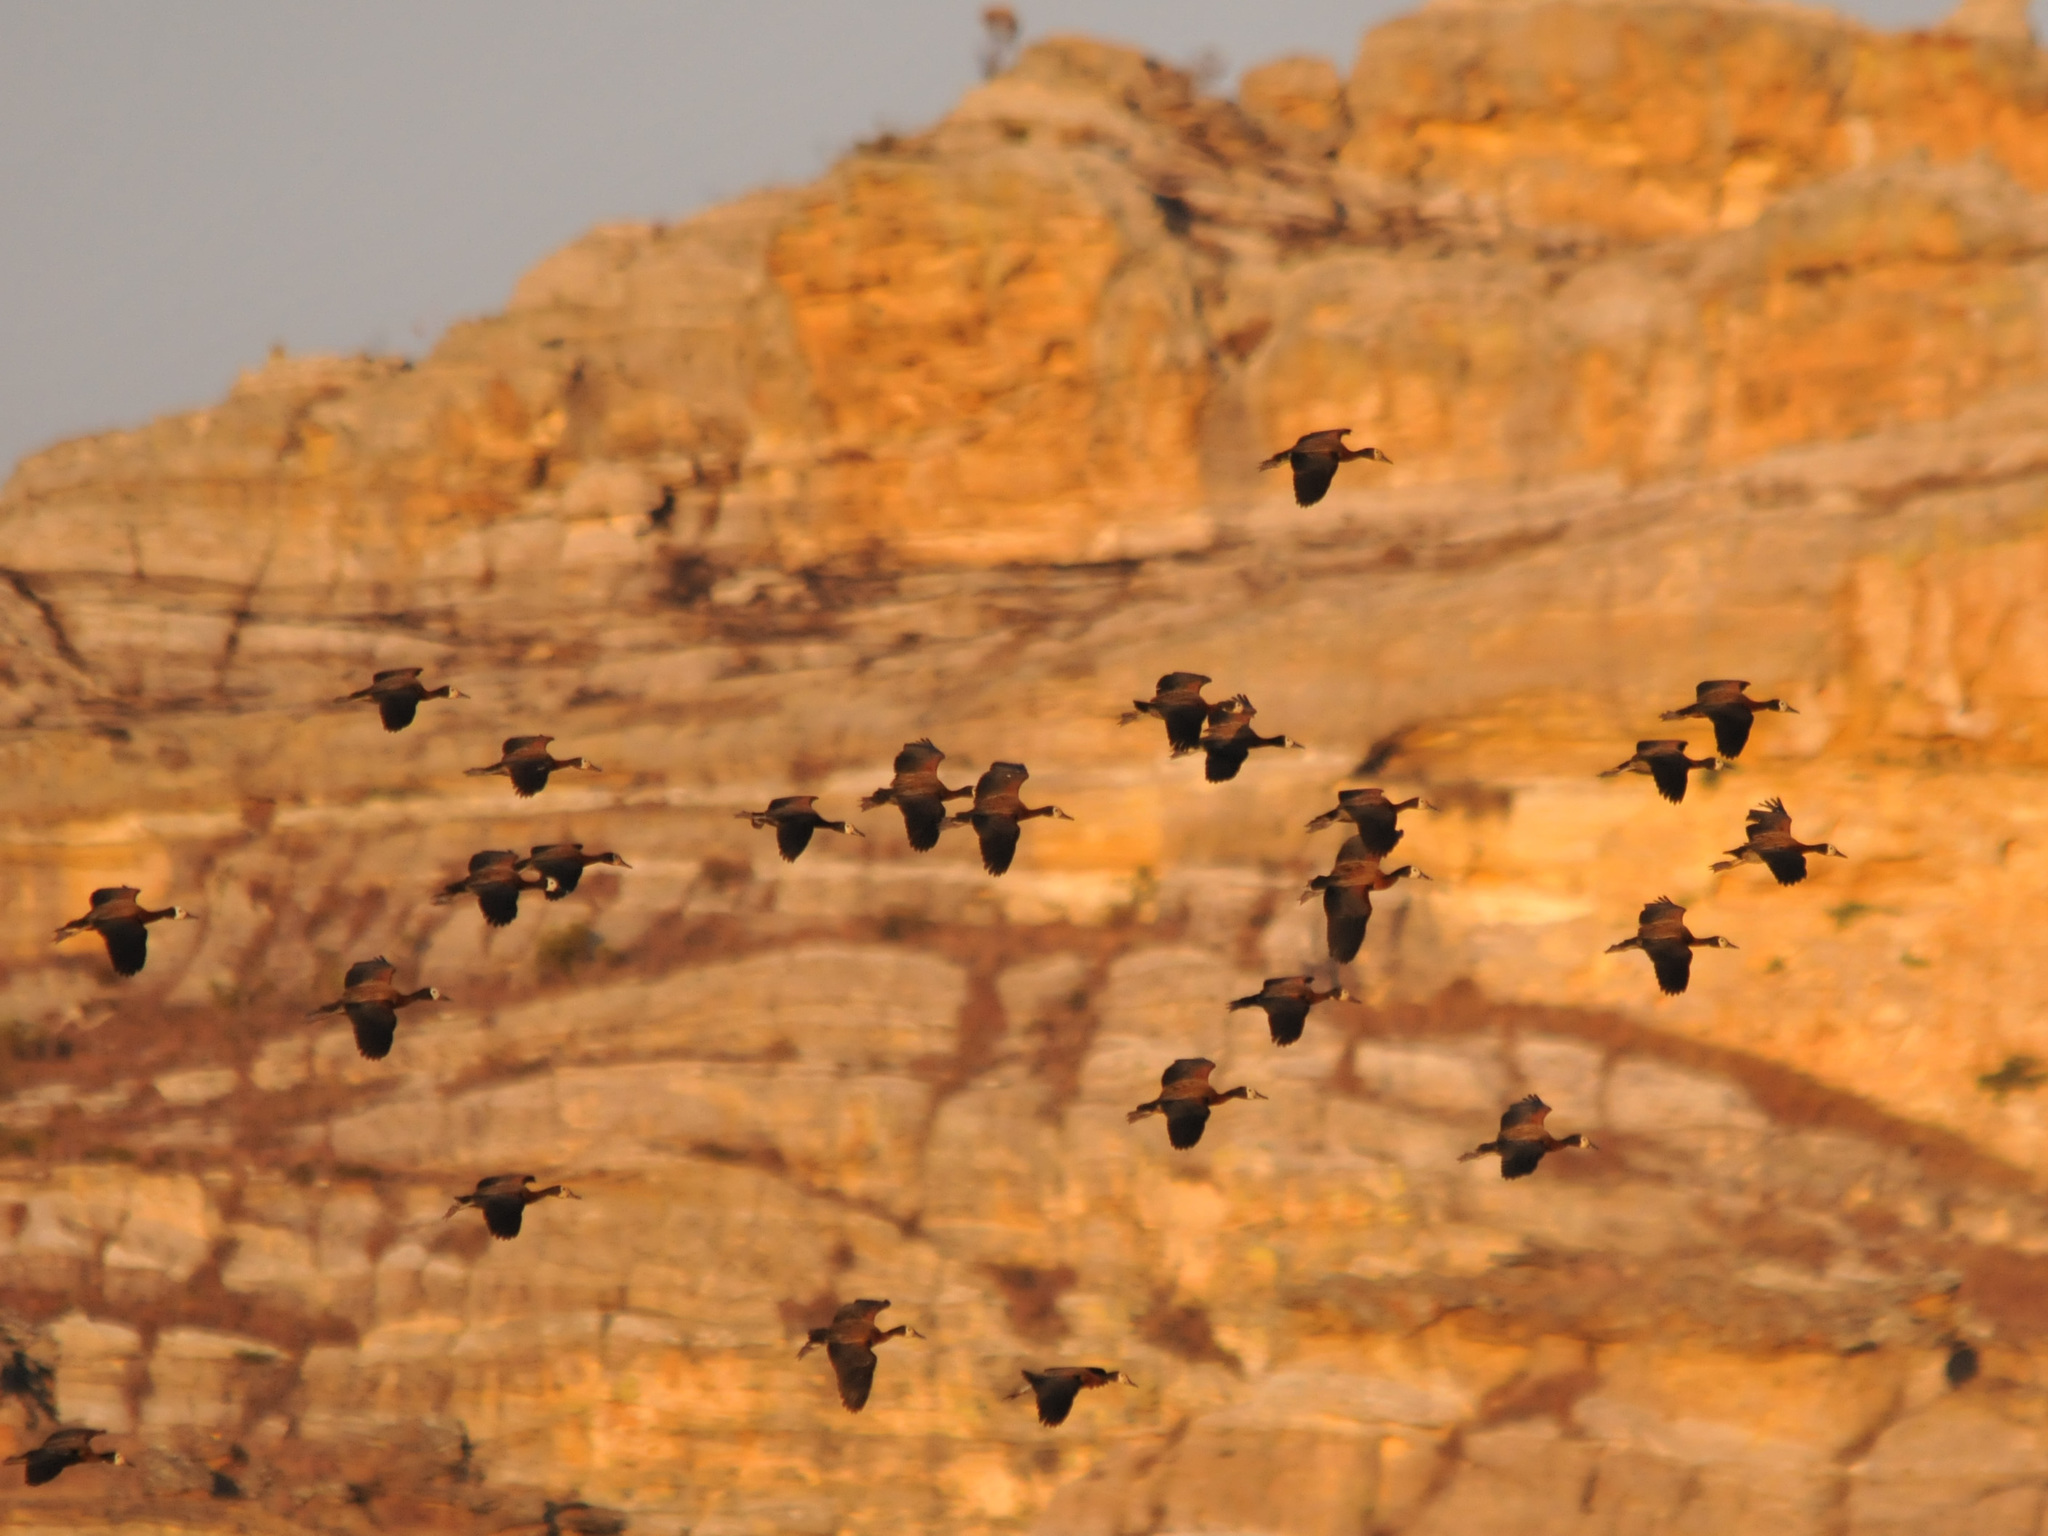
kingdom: Animalia
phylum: Chordata
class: Aves
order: Anseriformes
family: Anatidae
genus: Dendrocygna
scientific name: Dendrocygna viduata
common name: White-faced whistling duck
